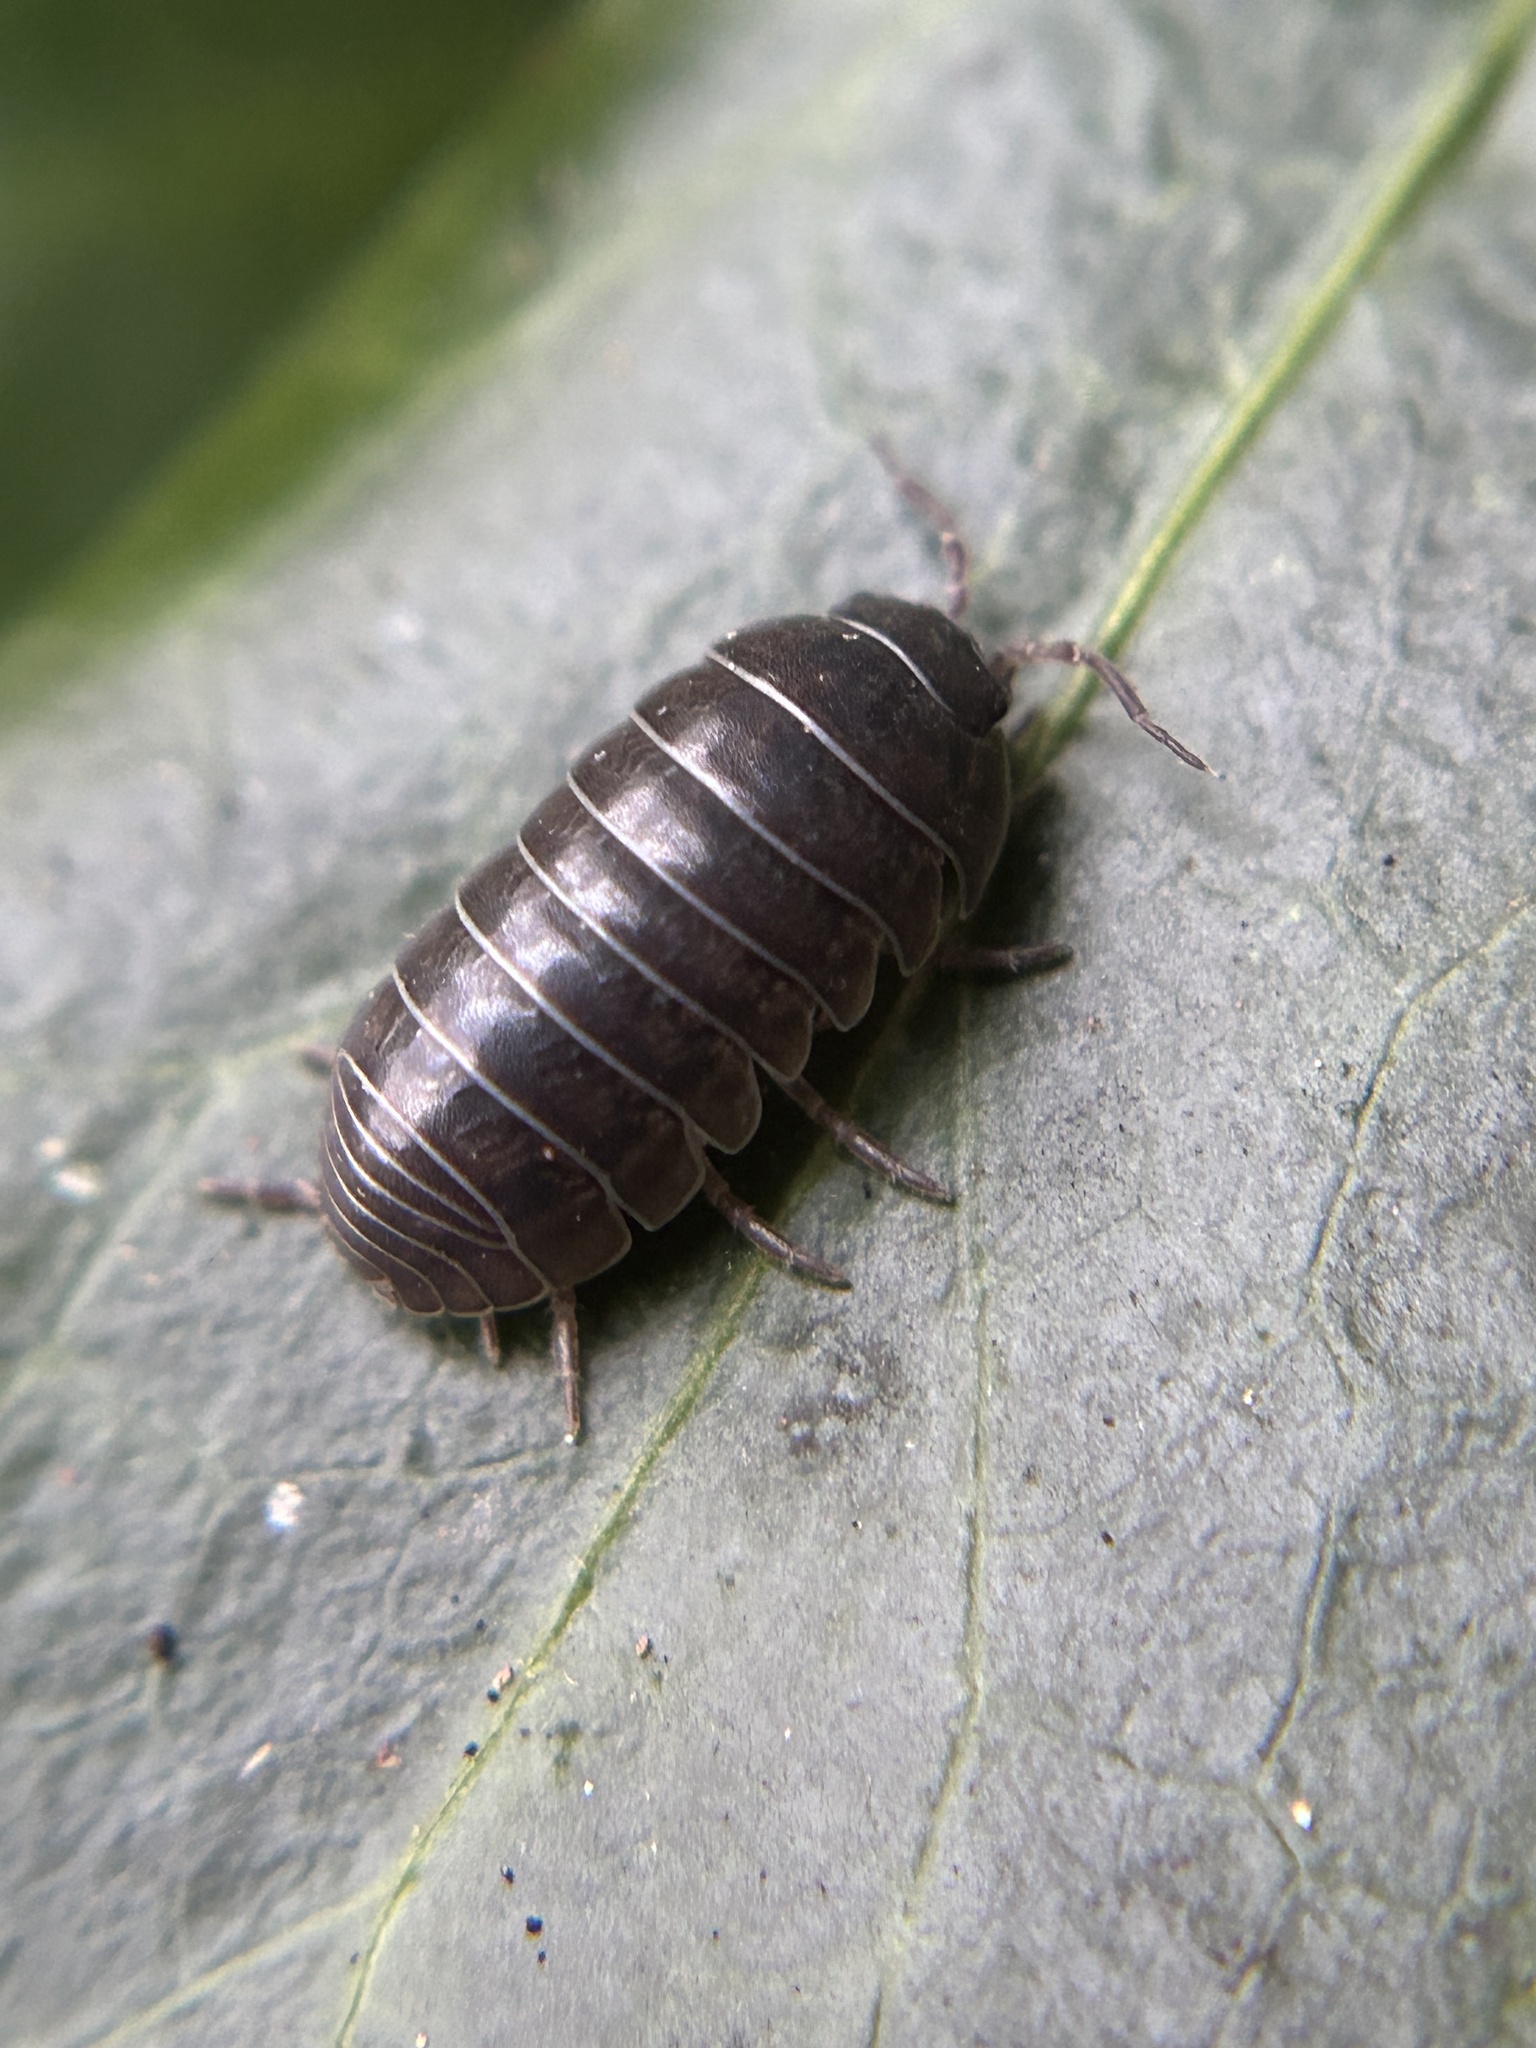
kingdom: Animalia
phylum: Arthropoda
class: Malacostraca
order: Isopoda
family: Armadillidiidae
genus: Armadillidium
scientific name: Armadillidium vulgare
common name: Common pill woodlouse
